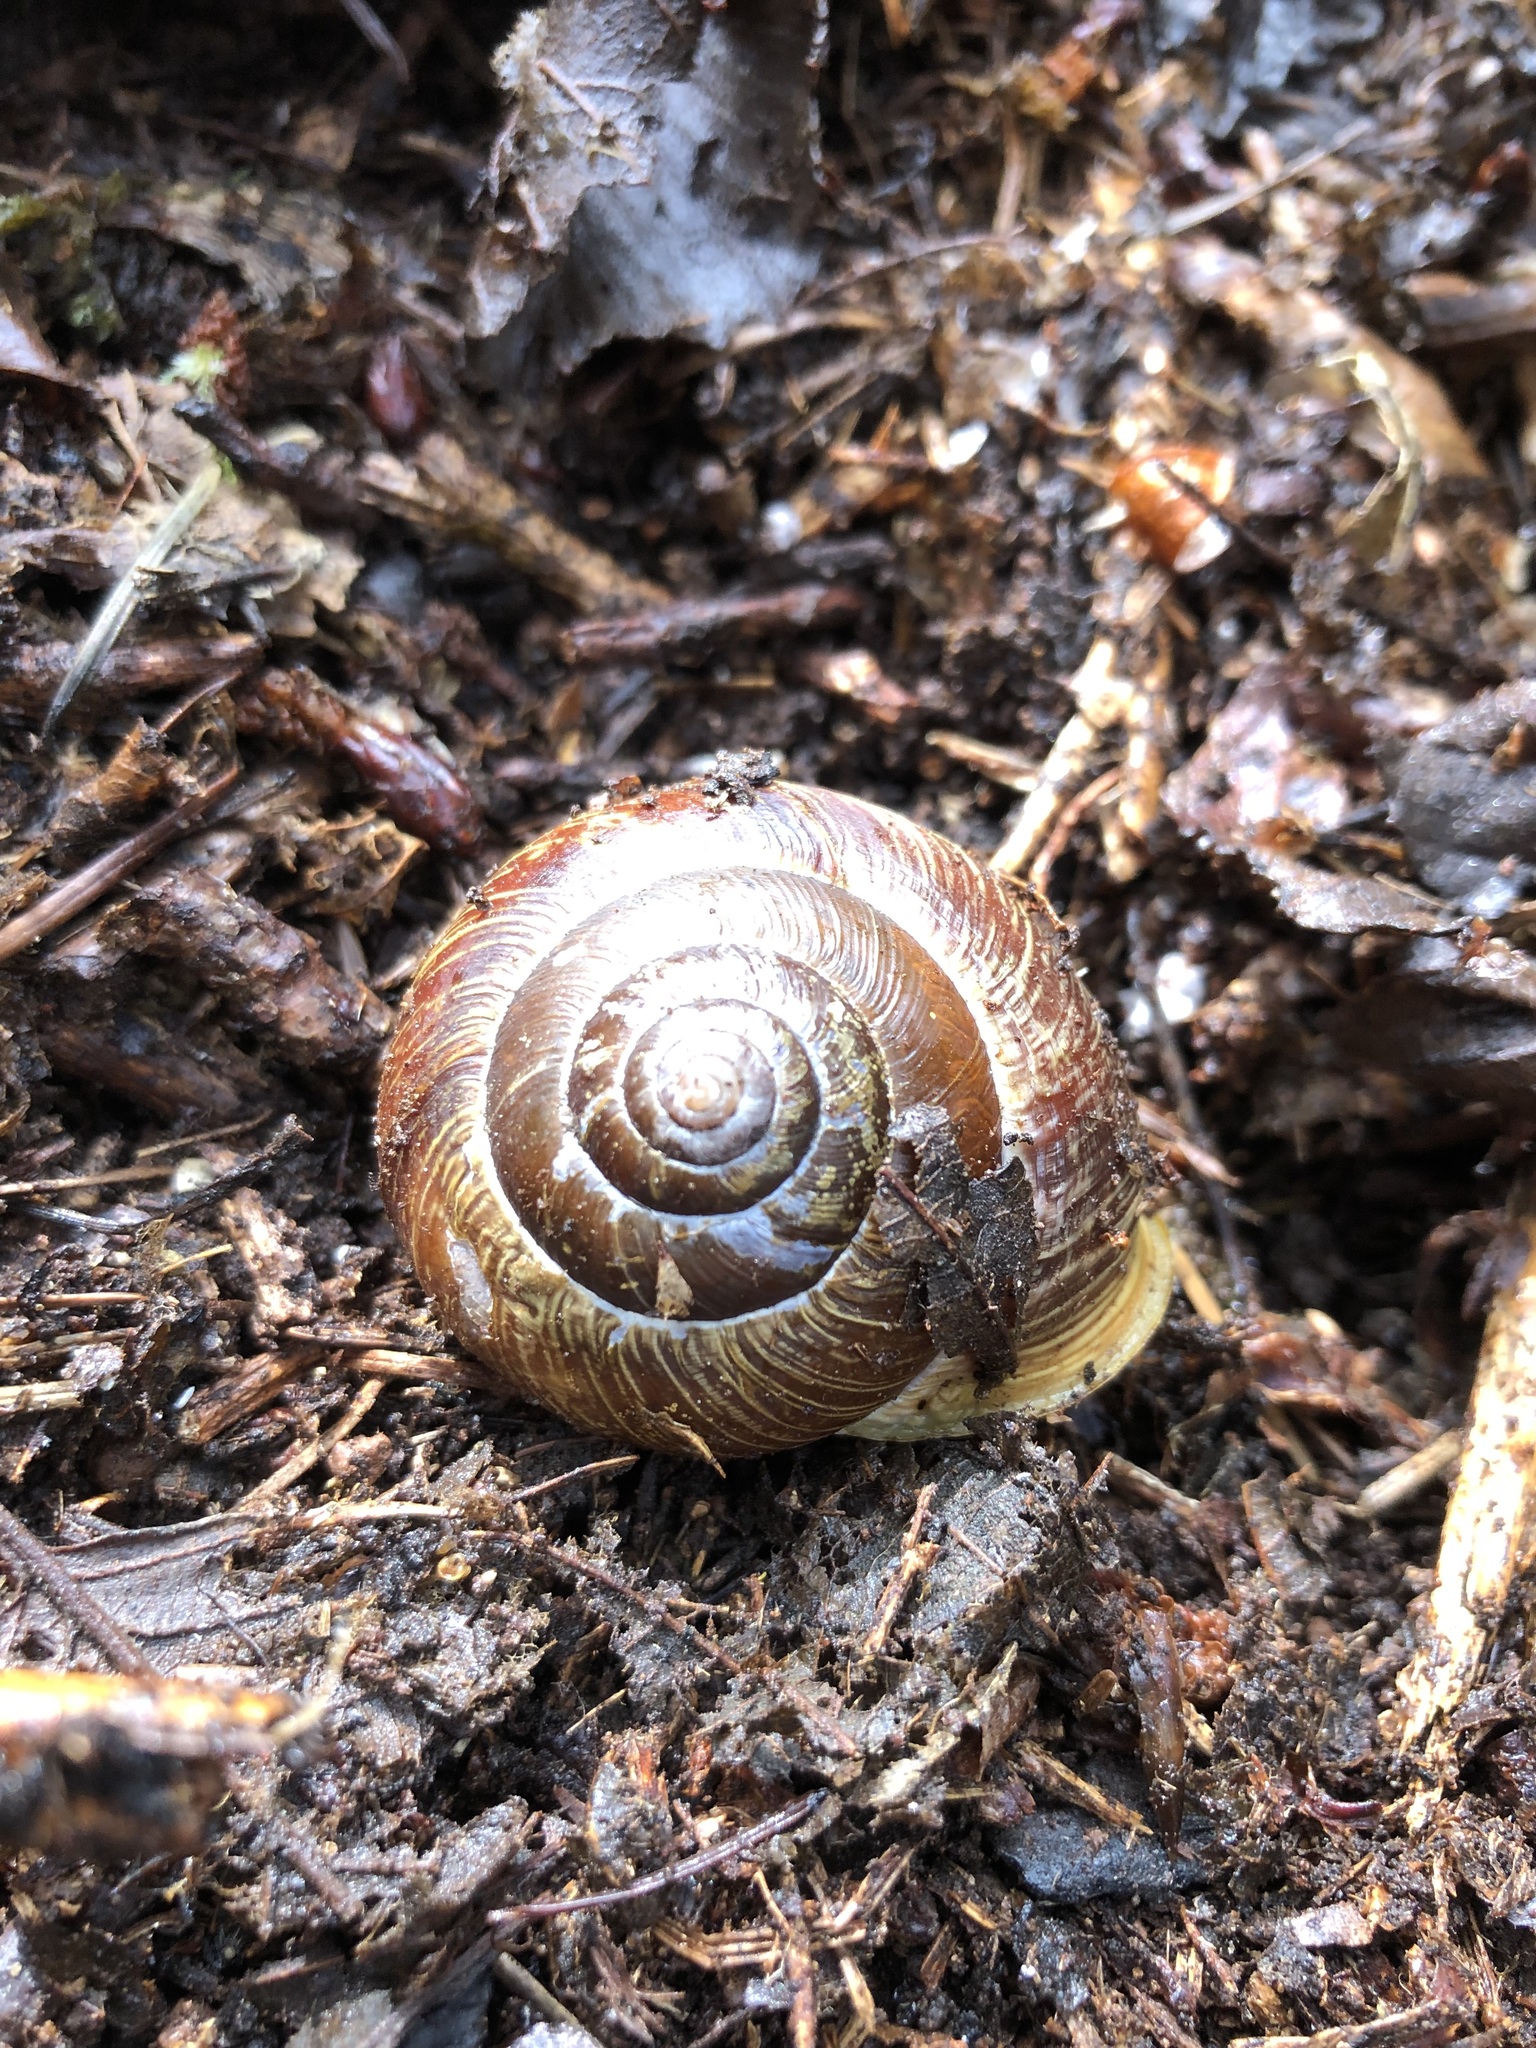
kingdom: Animalia
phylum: Mollusca
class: Gastropoda
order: Stylommatophora
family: Polygyridae
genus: Allogona
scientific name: Allogona townsendiana
